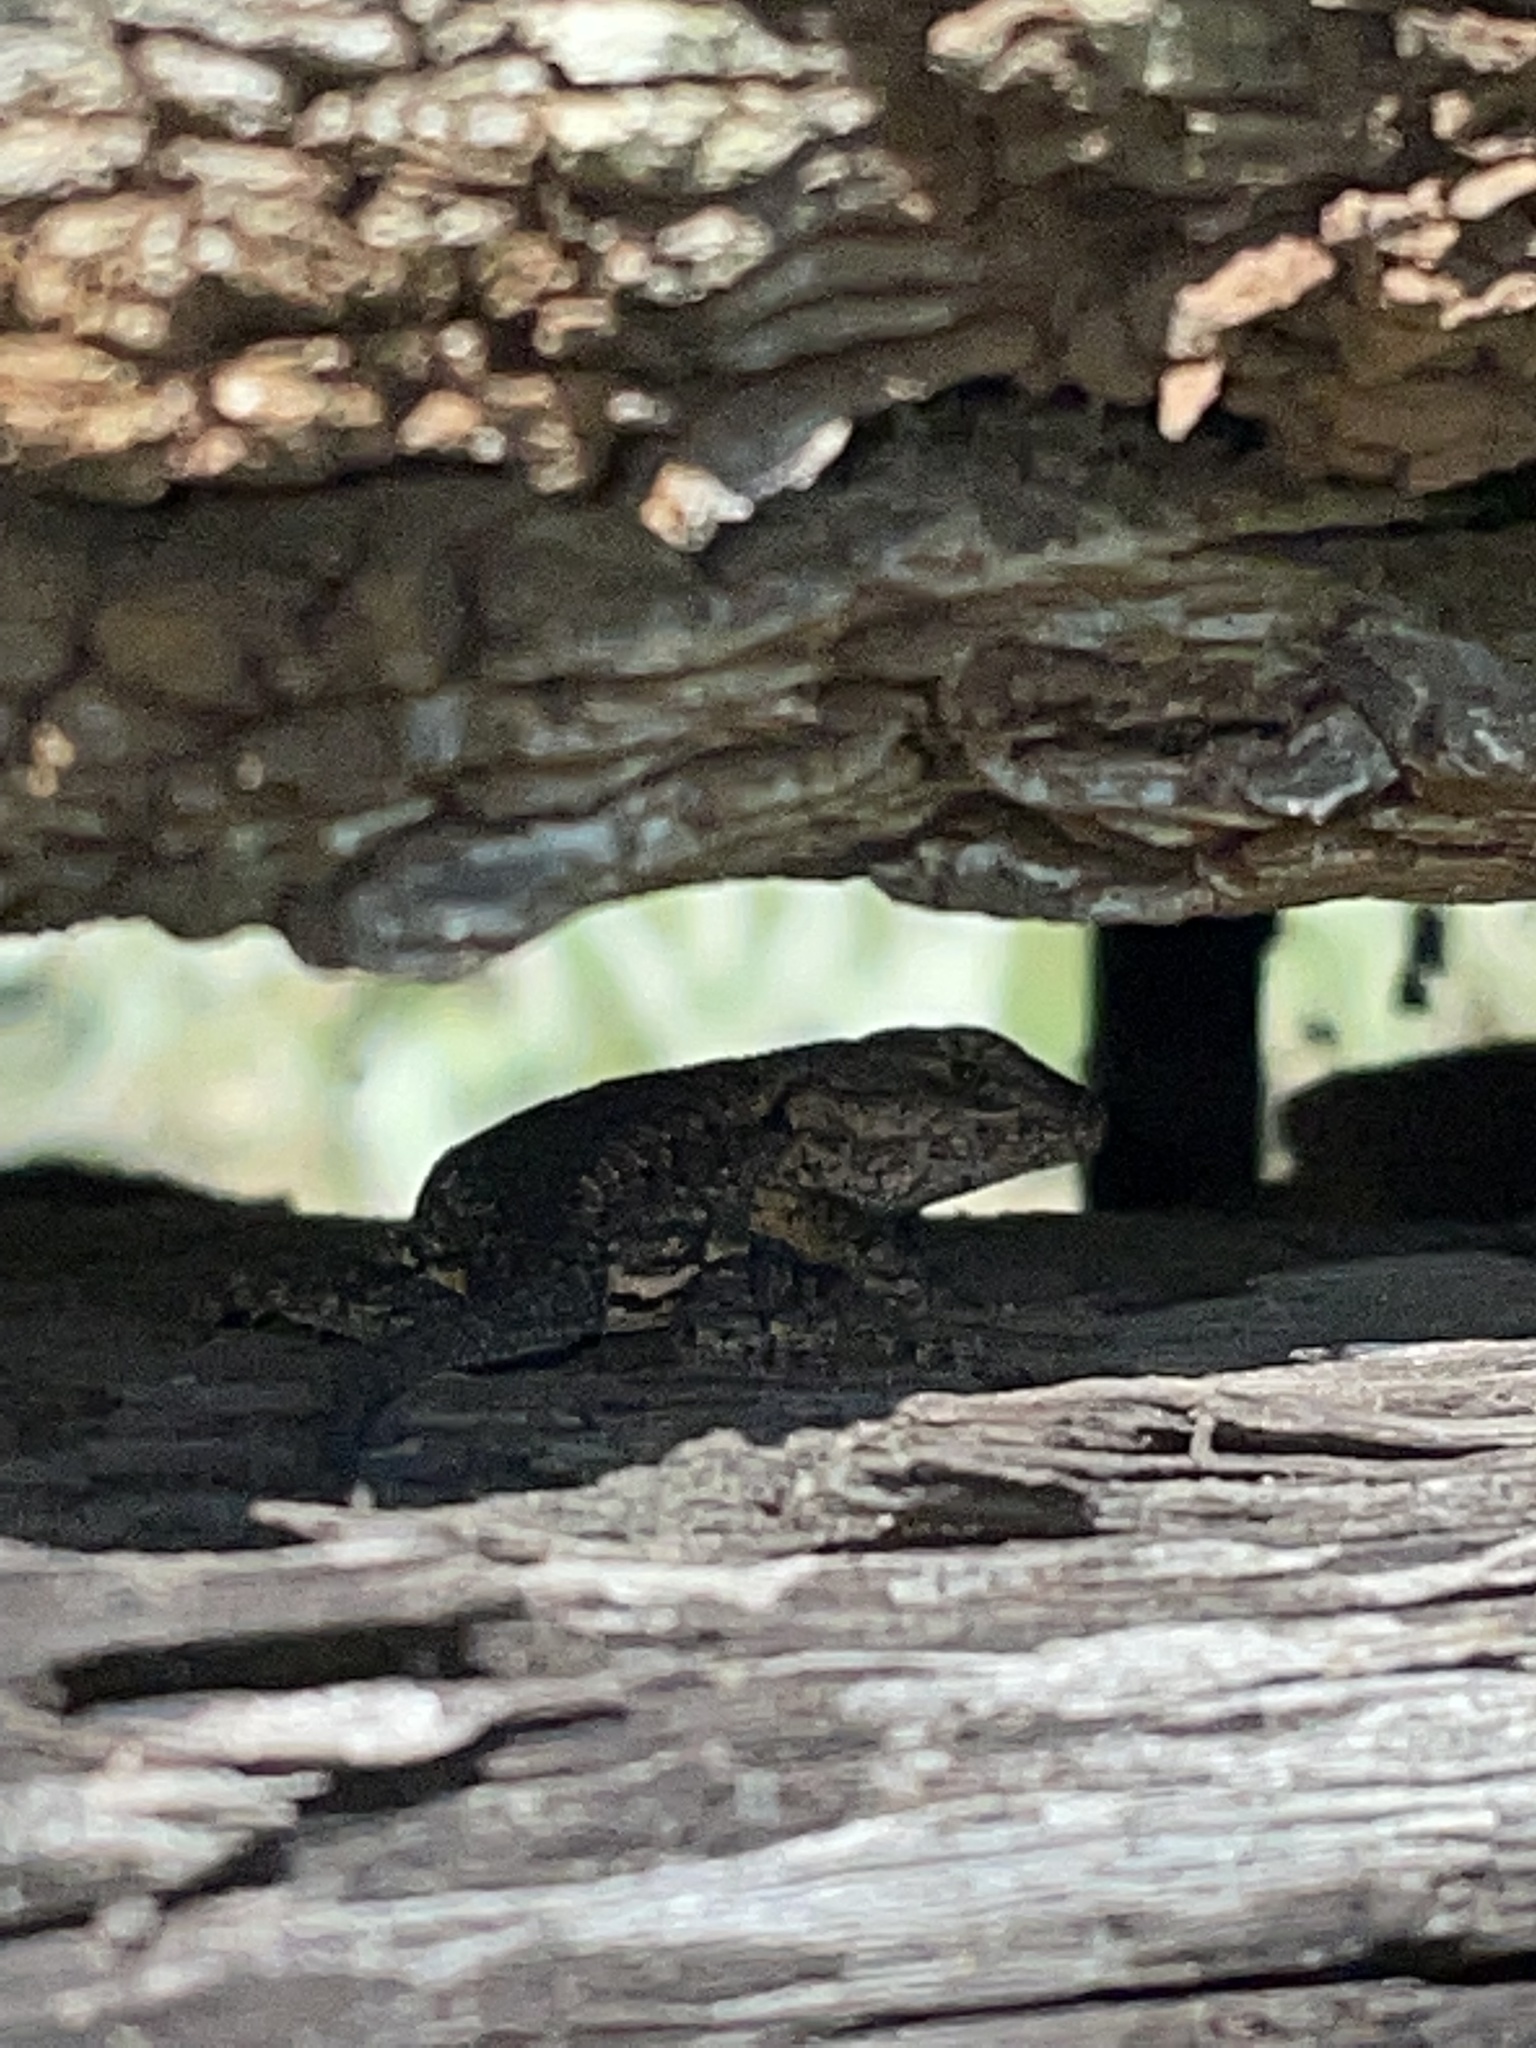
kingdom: Animalia
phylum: Chordata
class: Squamata
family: Phrynosomatidae
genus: Sceloporus
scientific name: Sceloporus undulatus
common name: Eastern fence lizard
